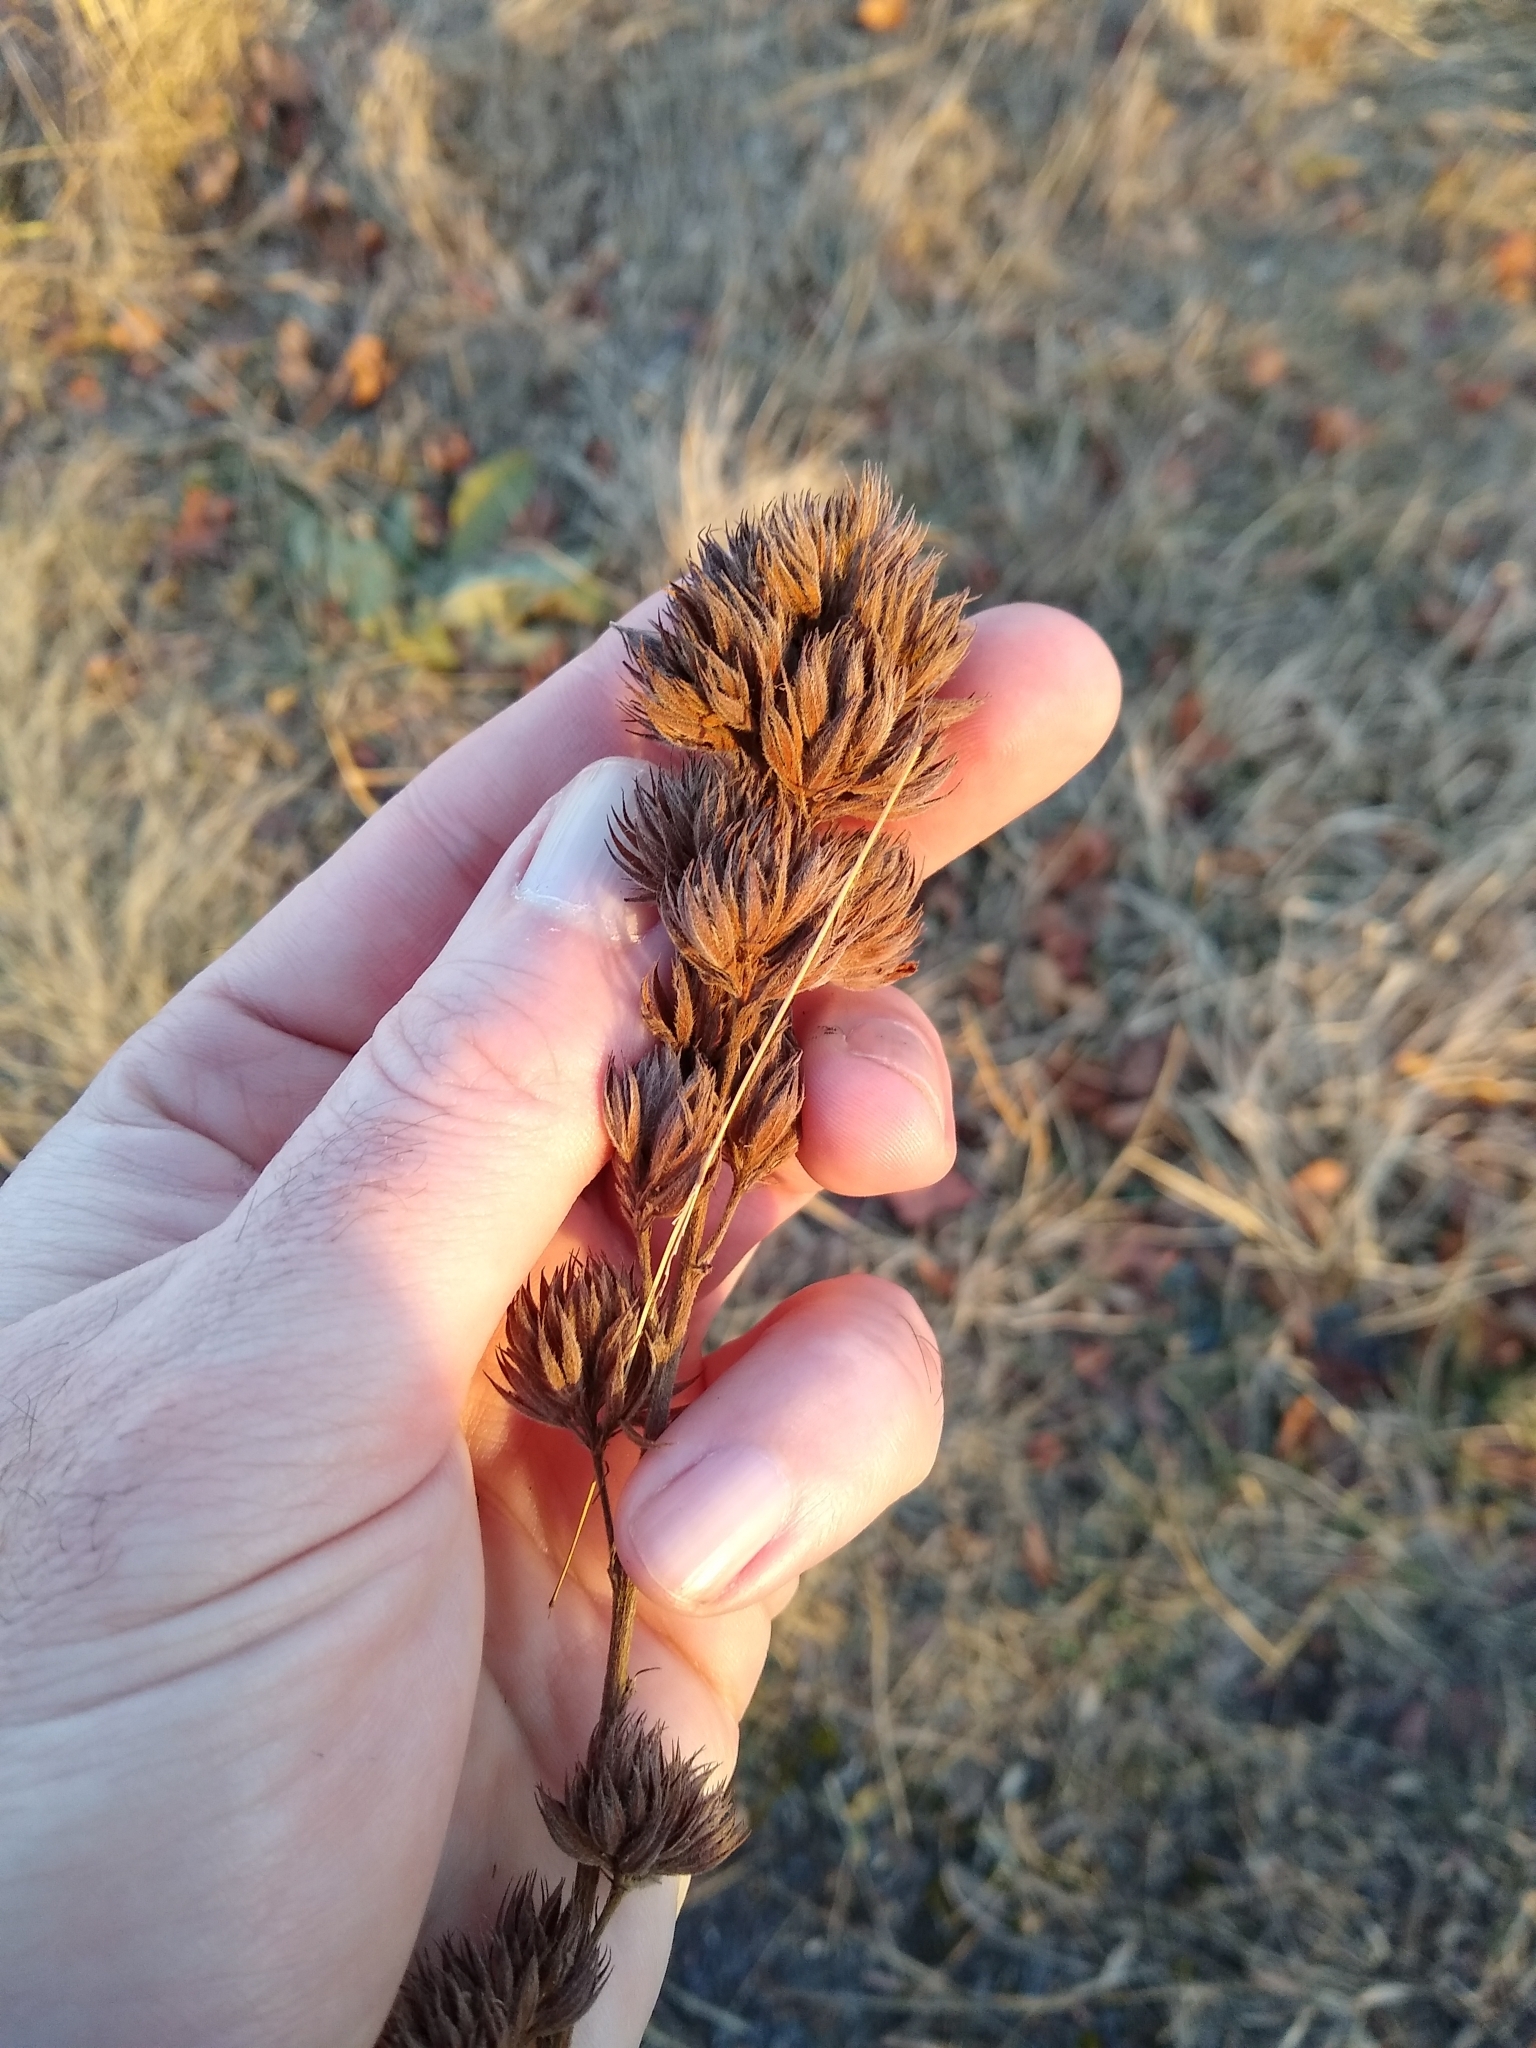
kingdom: Plantae
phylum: Tracheophyta
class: Magnoliopsida
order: Fabales
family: Fabaceae
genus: Lespedeza
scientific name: Lespedeza capitata
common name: Dusty clover
